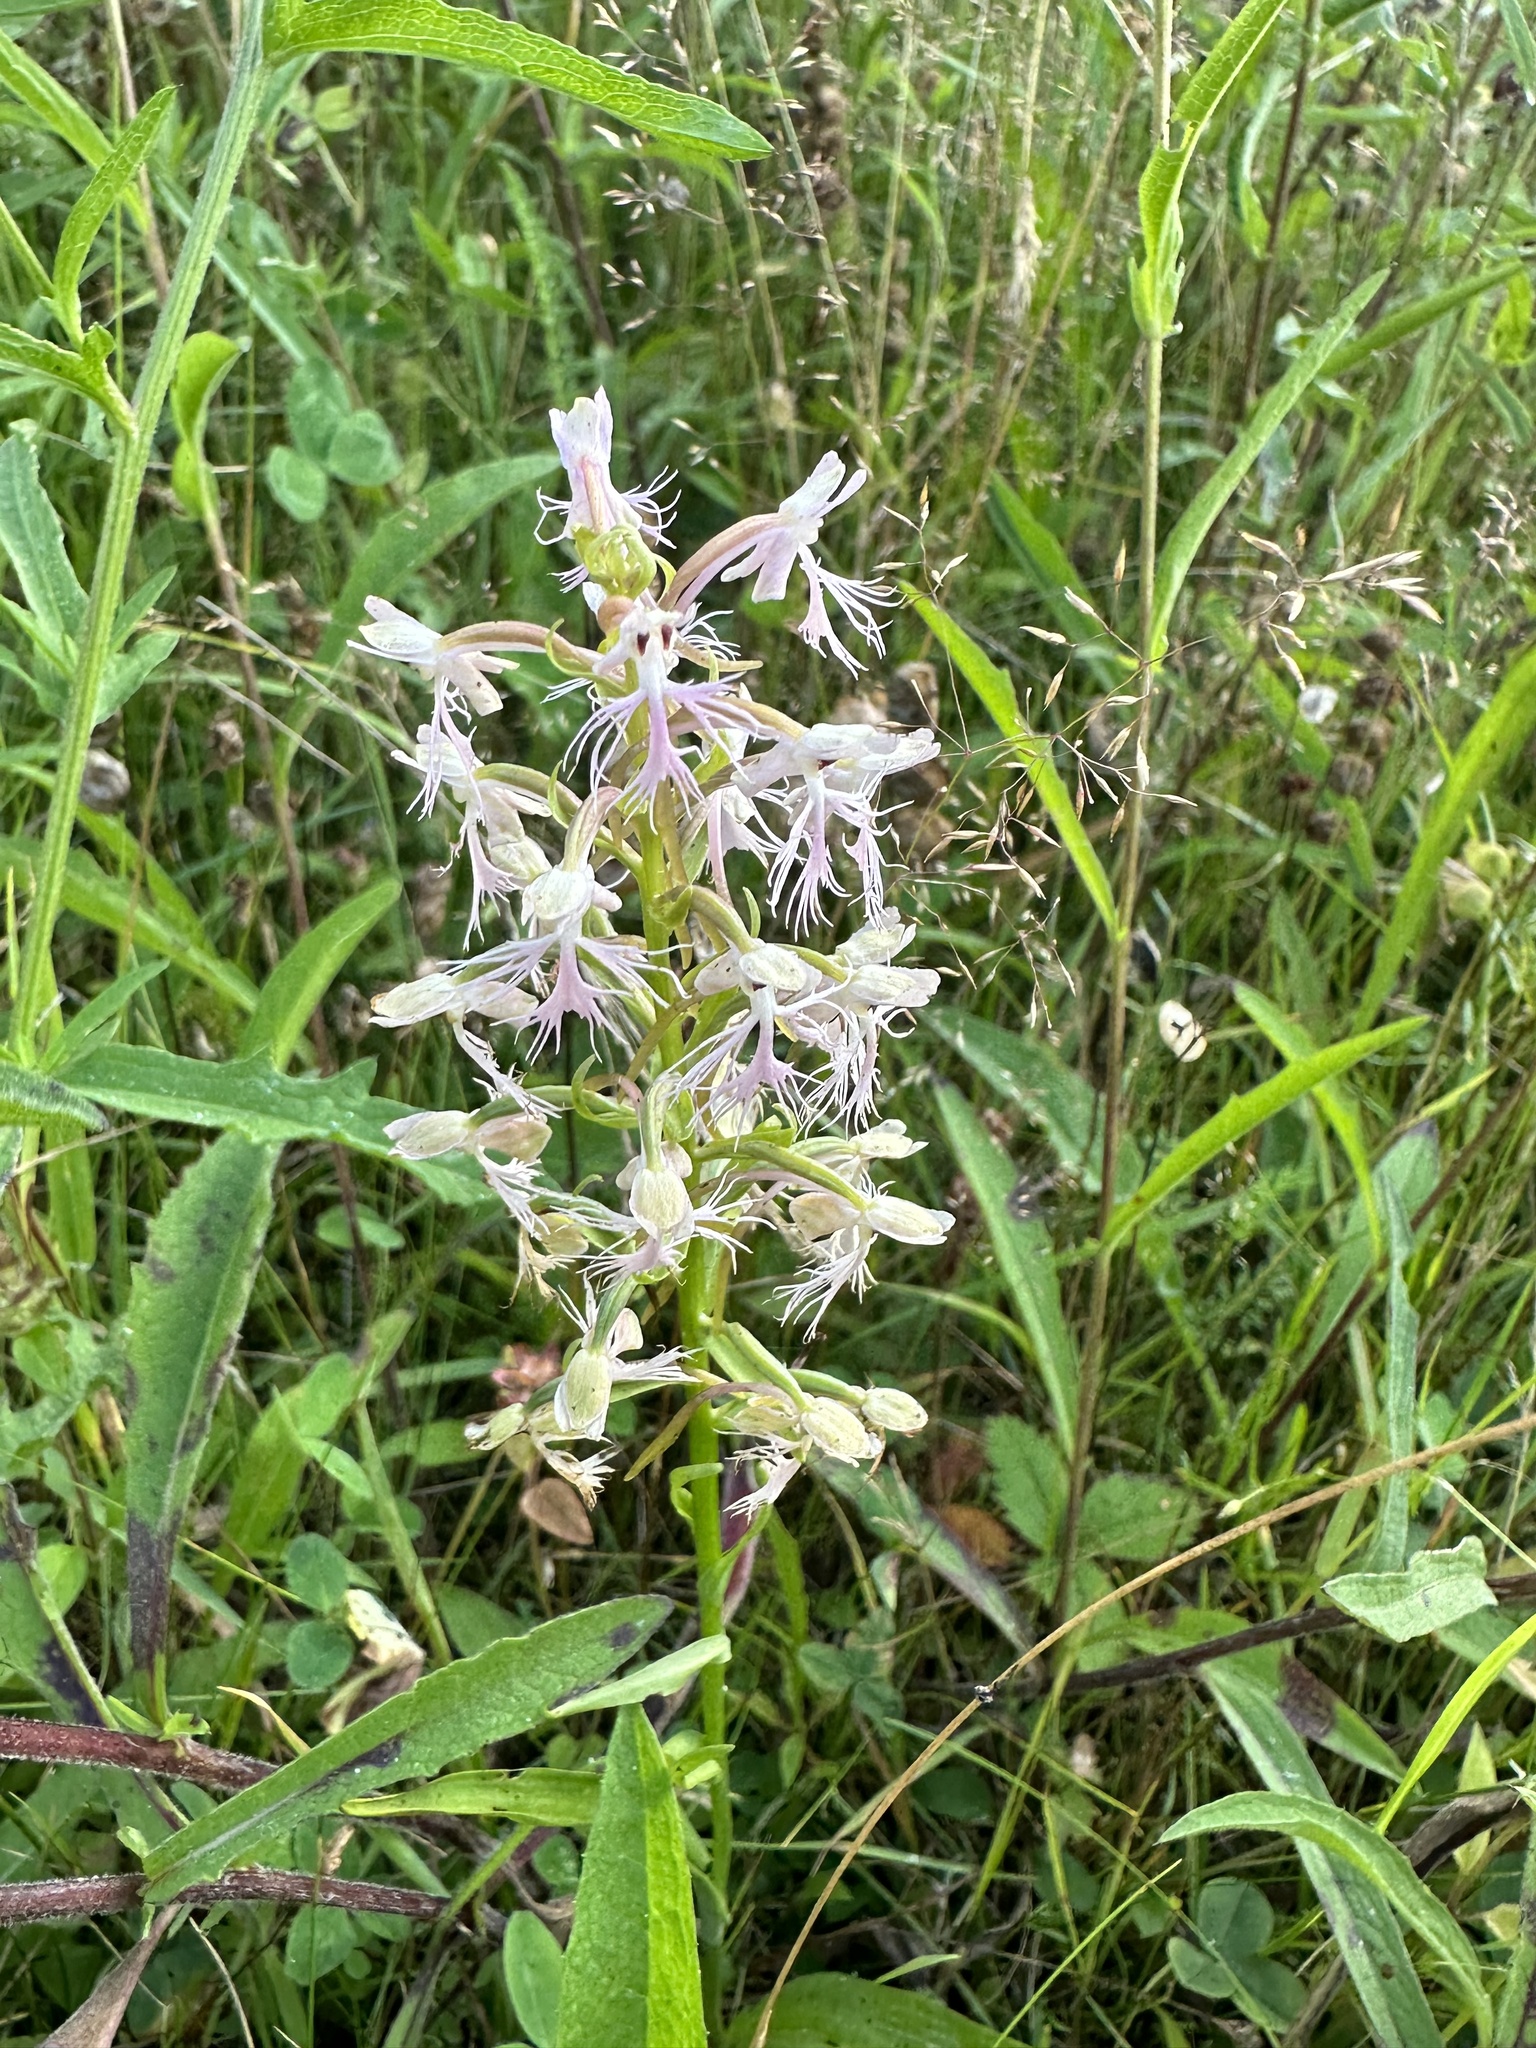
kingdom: Plantae
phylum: Tracheophyta
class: Liliopsida
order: Asparagales
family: Orchidaceae
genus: Platanthera
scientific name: Platanthera lacera
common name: Green fringed orchid
